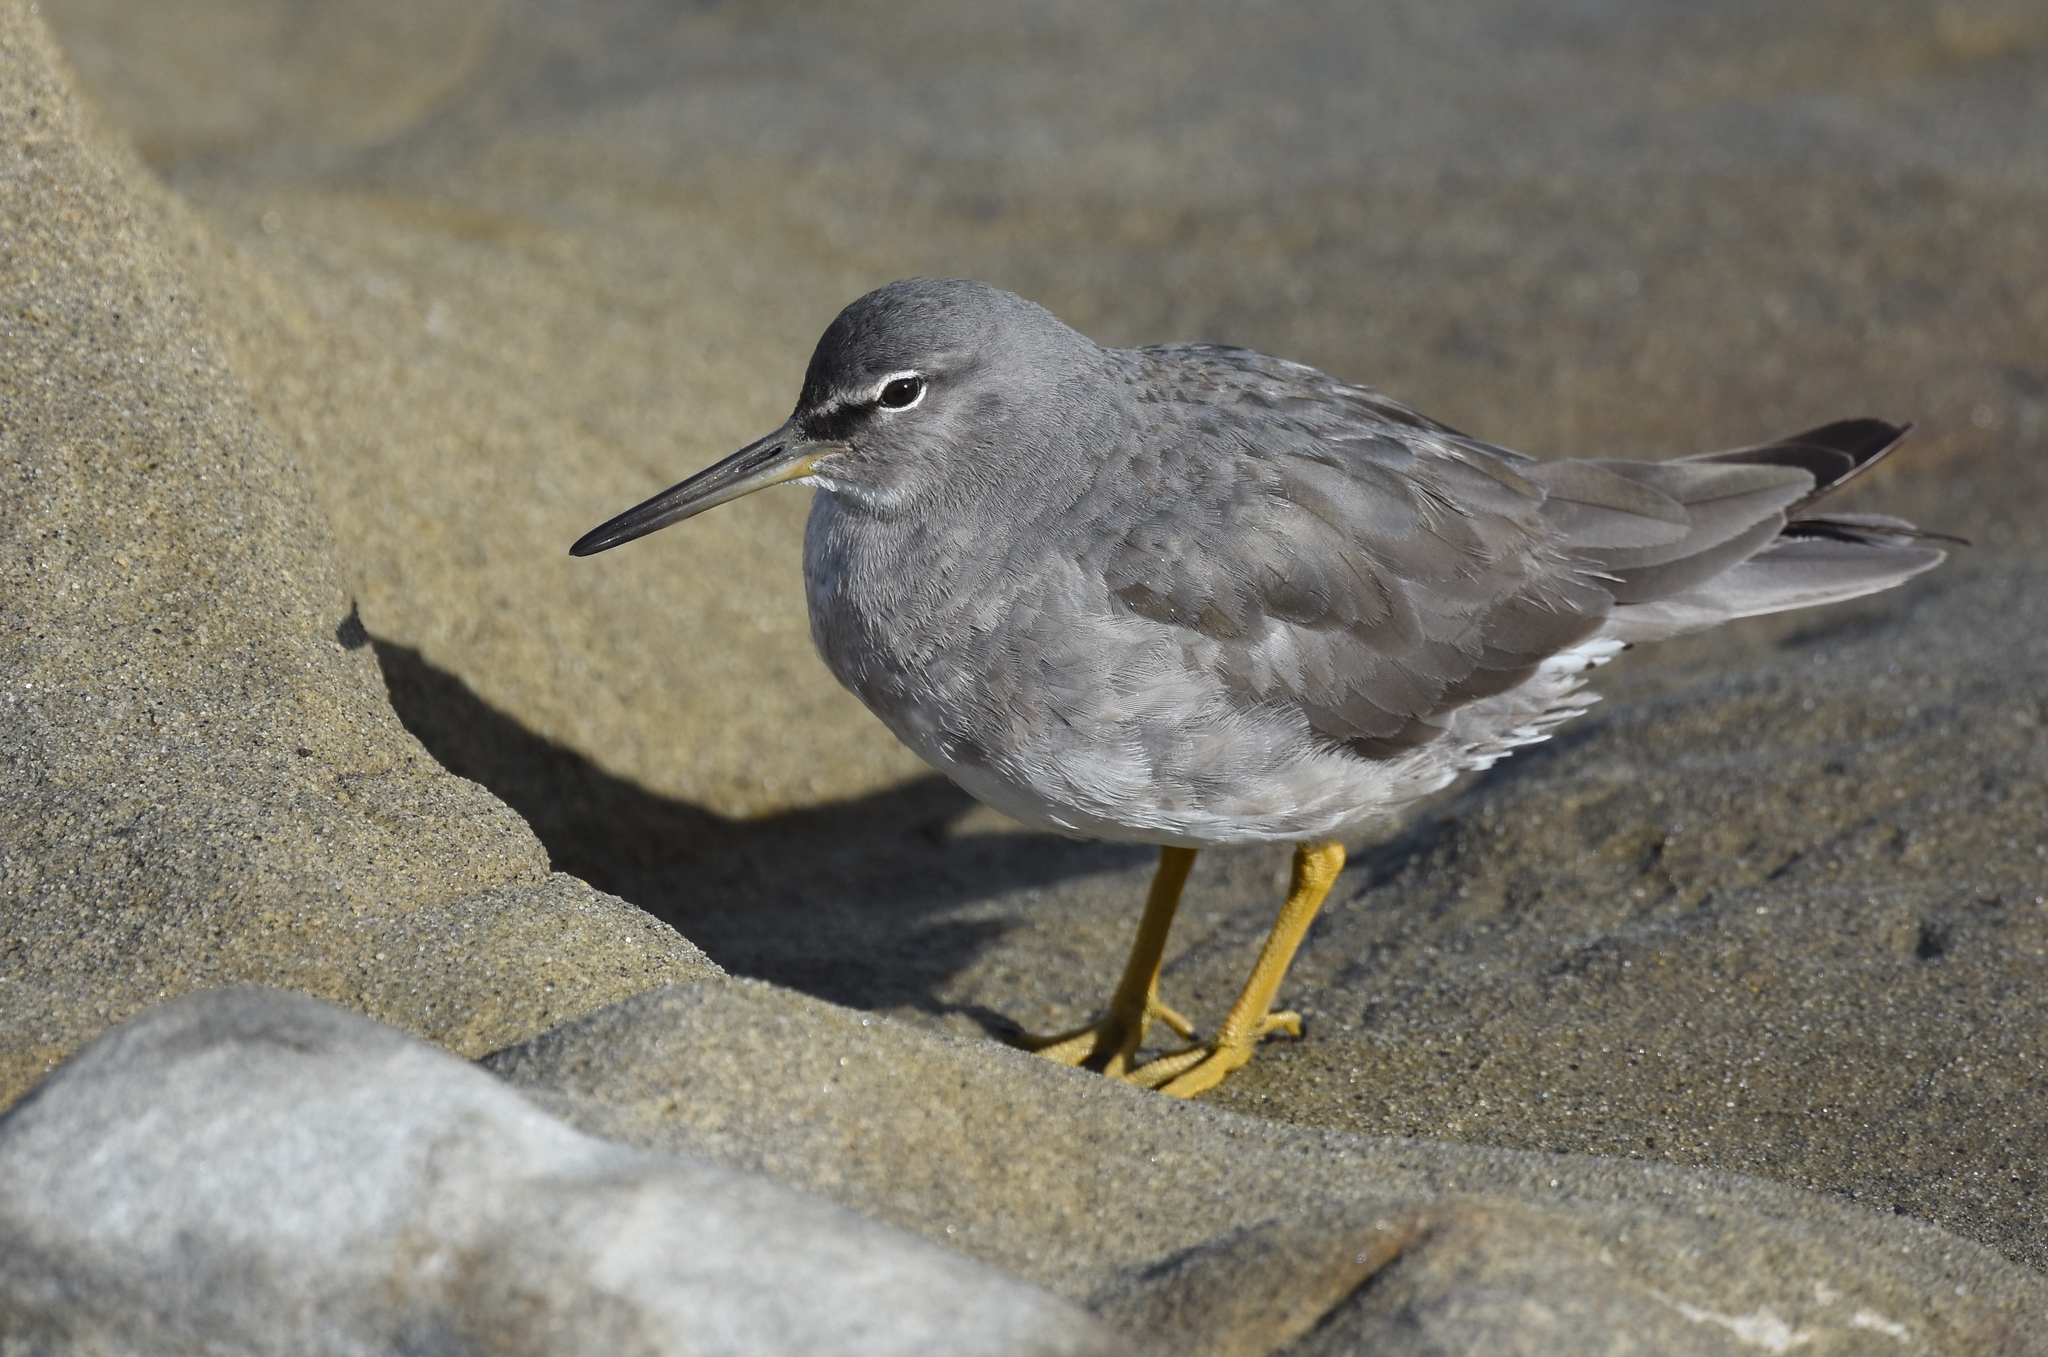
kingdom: Animalia
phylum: Chordata
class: Aves
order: Charadriiformes
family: Scolopacidae
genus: Tringa
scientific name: Tringa incana
